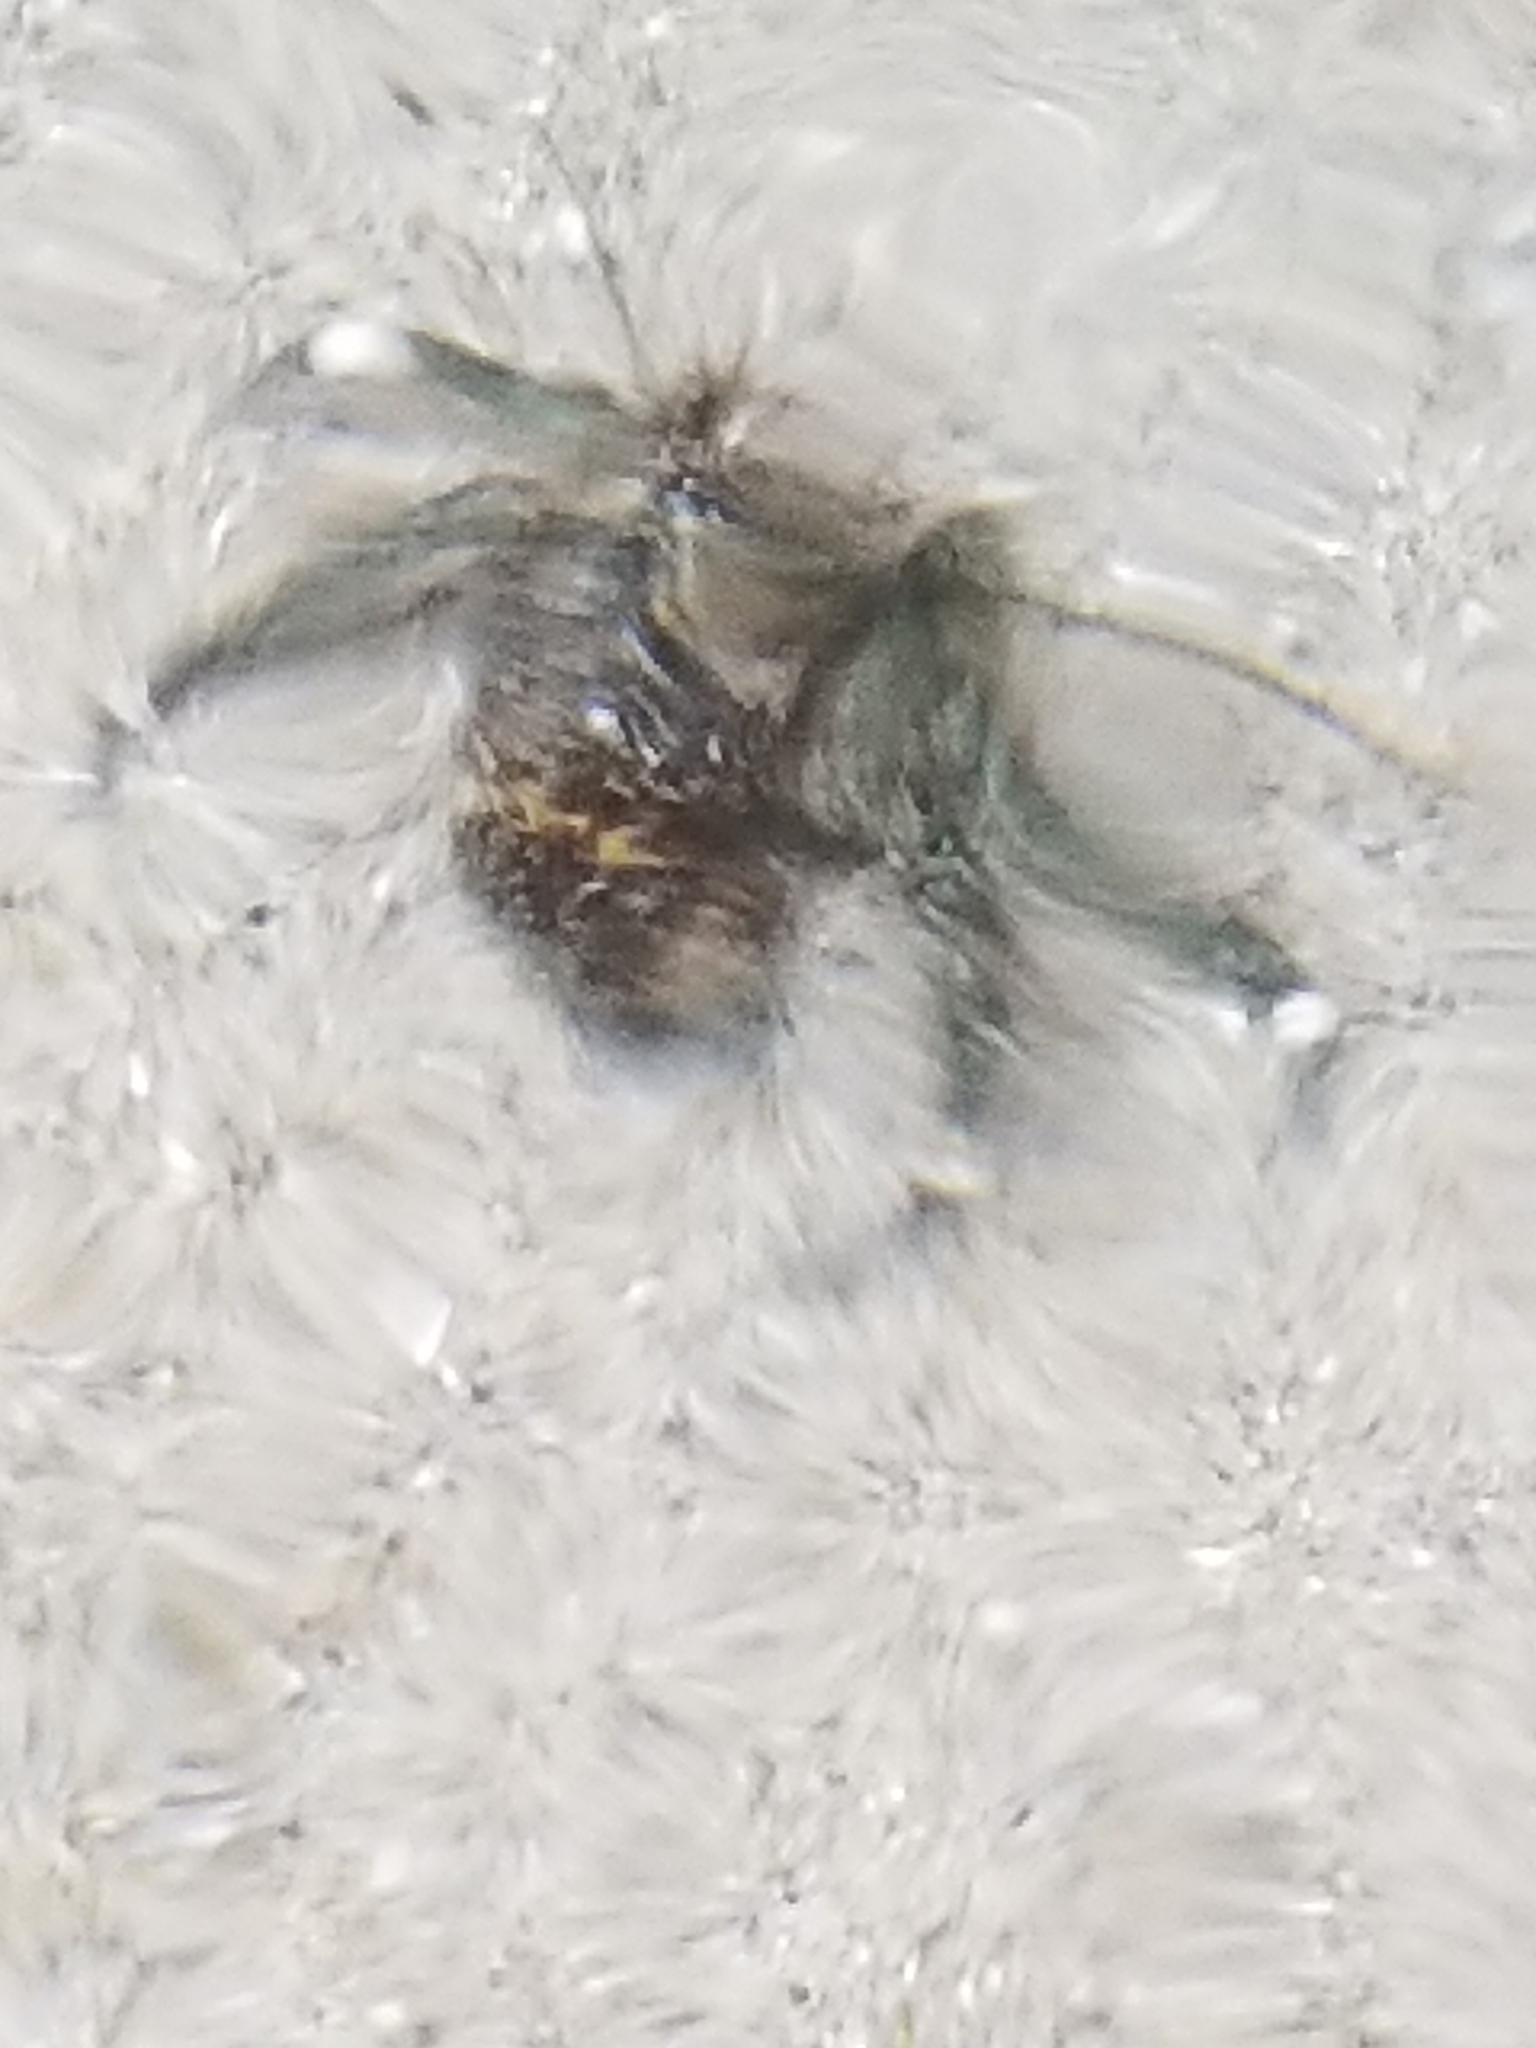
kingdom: Animalia
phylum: Arthropoda
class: Malacostraca
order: Decapoda
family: Paguridae
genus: Pagurus
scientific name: Pagurus hirsutiusculus
